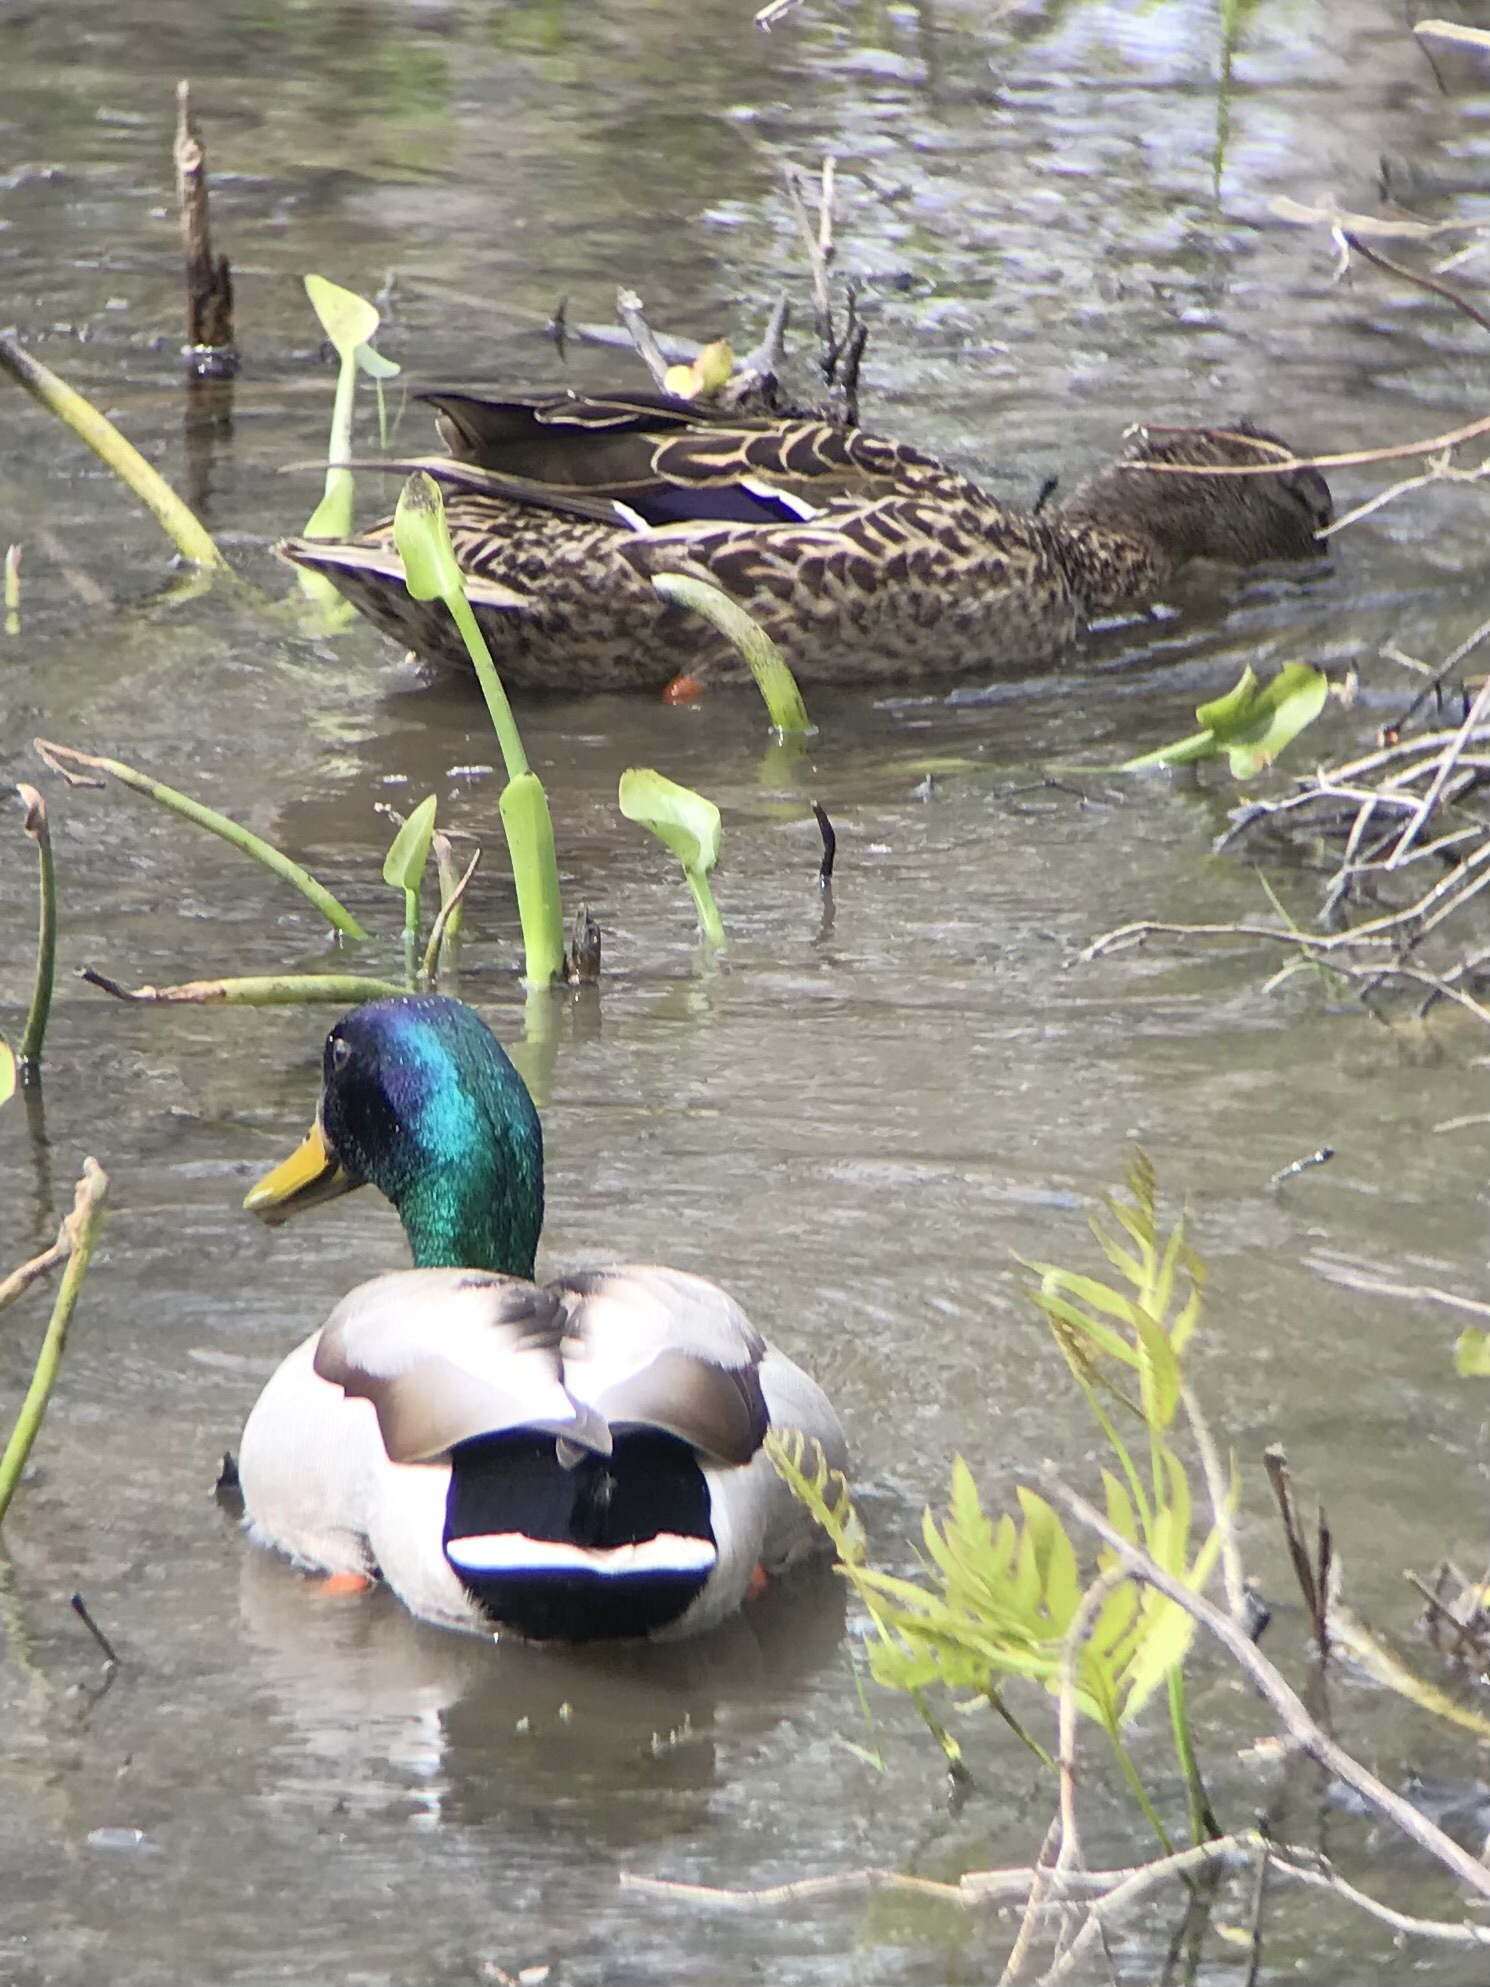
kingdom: Animalia
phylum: Chordata
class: Aves
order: Anseriformes
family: Anatidae
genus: Anas
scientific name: Anas platyrhynchos
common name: Mallard
